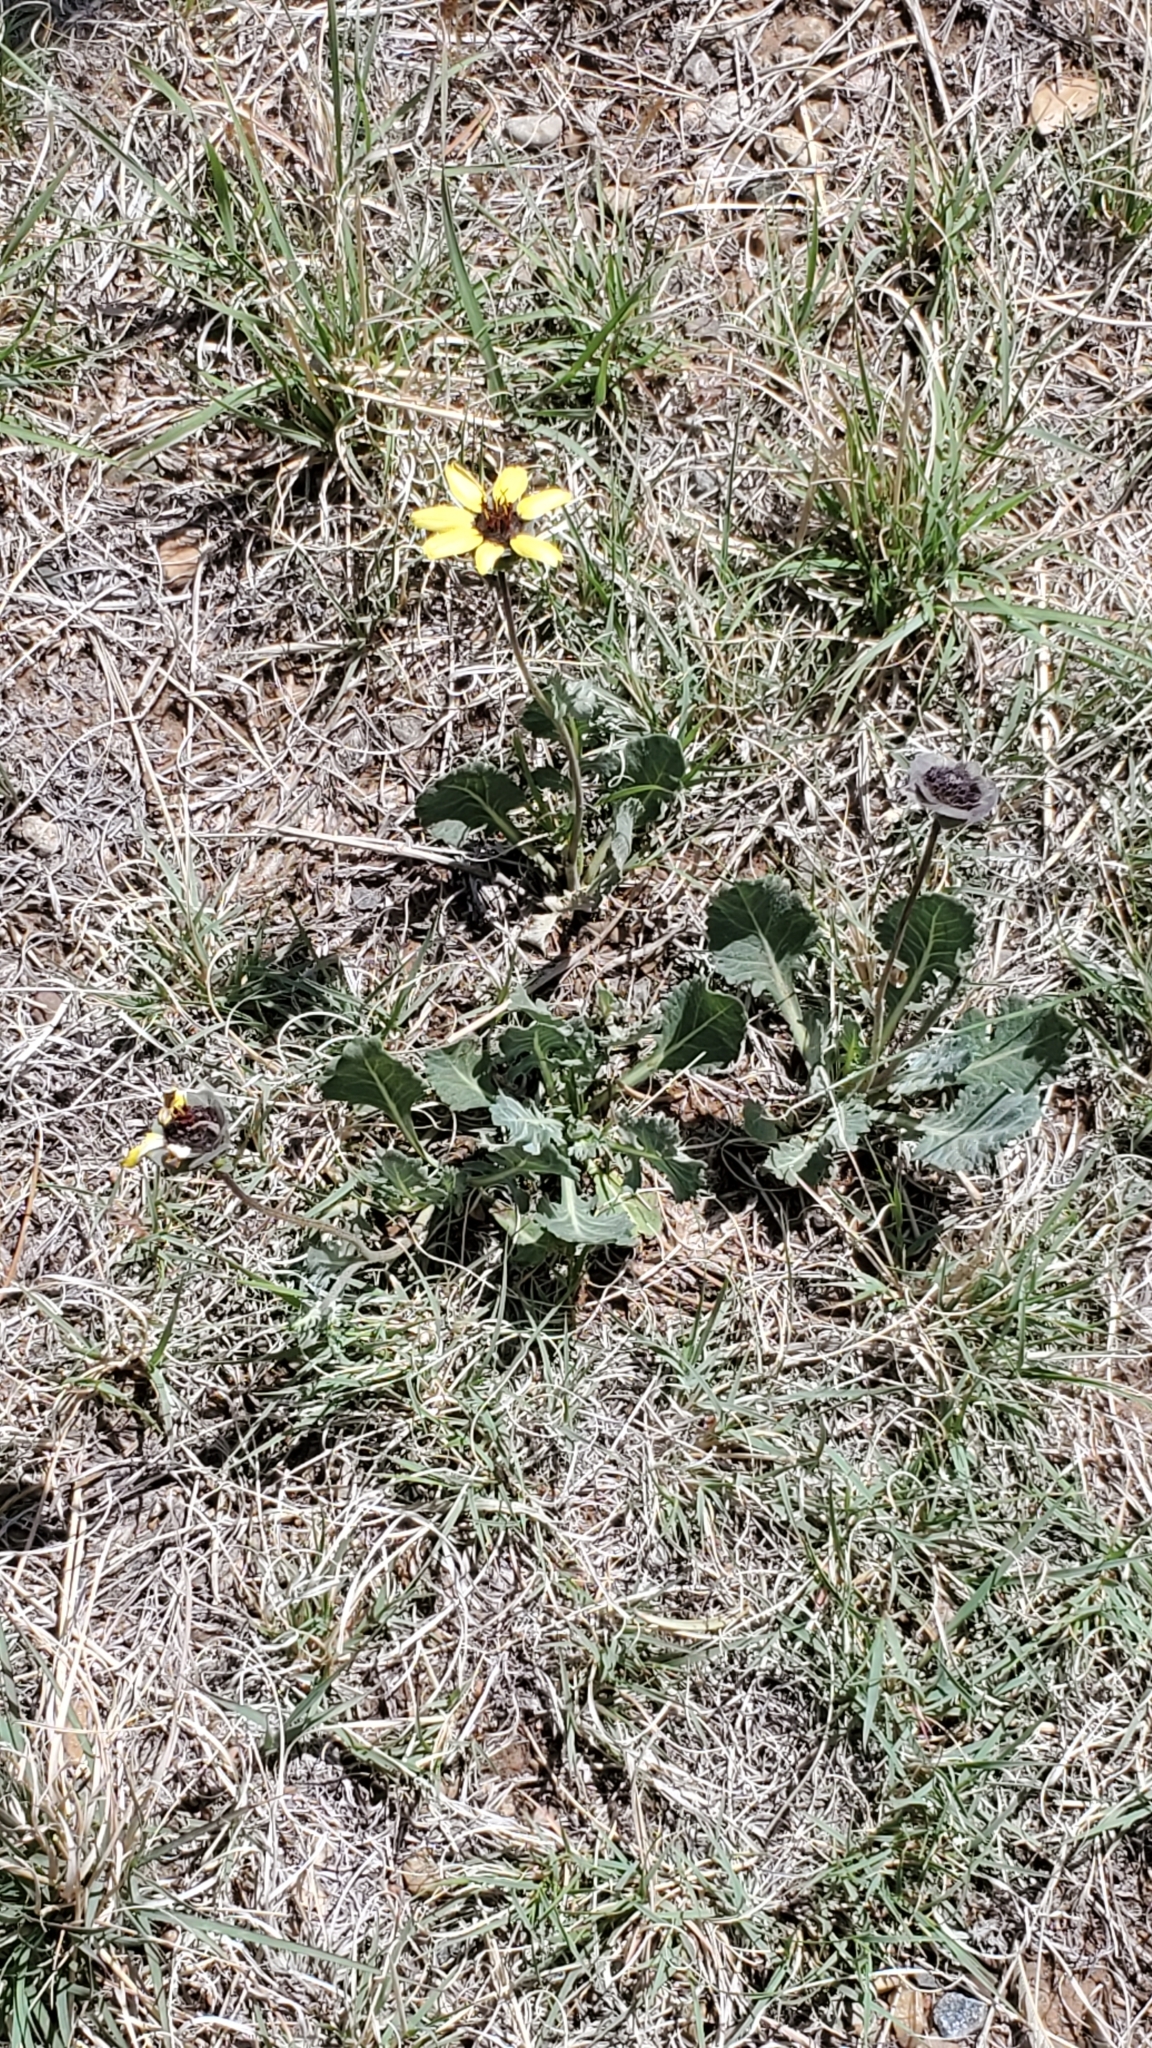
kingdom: Plantae
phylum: Tracheophyta
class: Magnoliopsida
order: Asterales
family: Asteraceae
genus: Berlandiera
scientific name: Berlandiera lyrata
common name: Chocolate-flower
